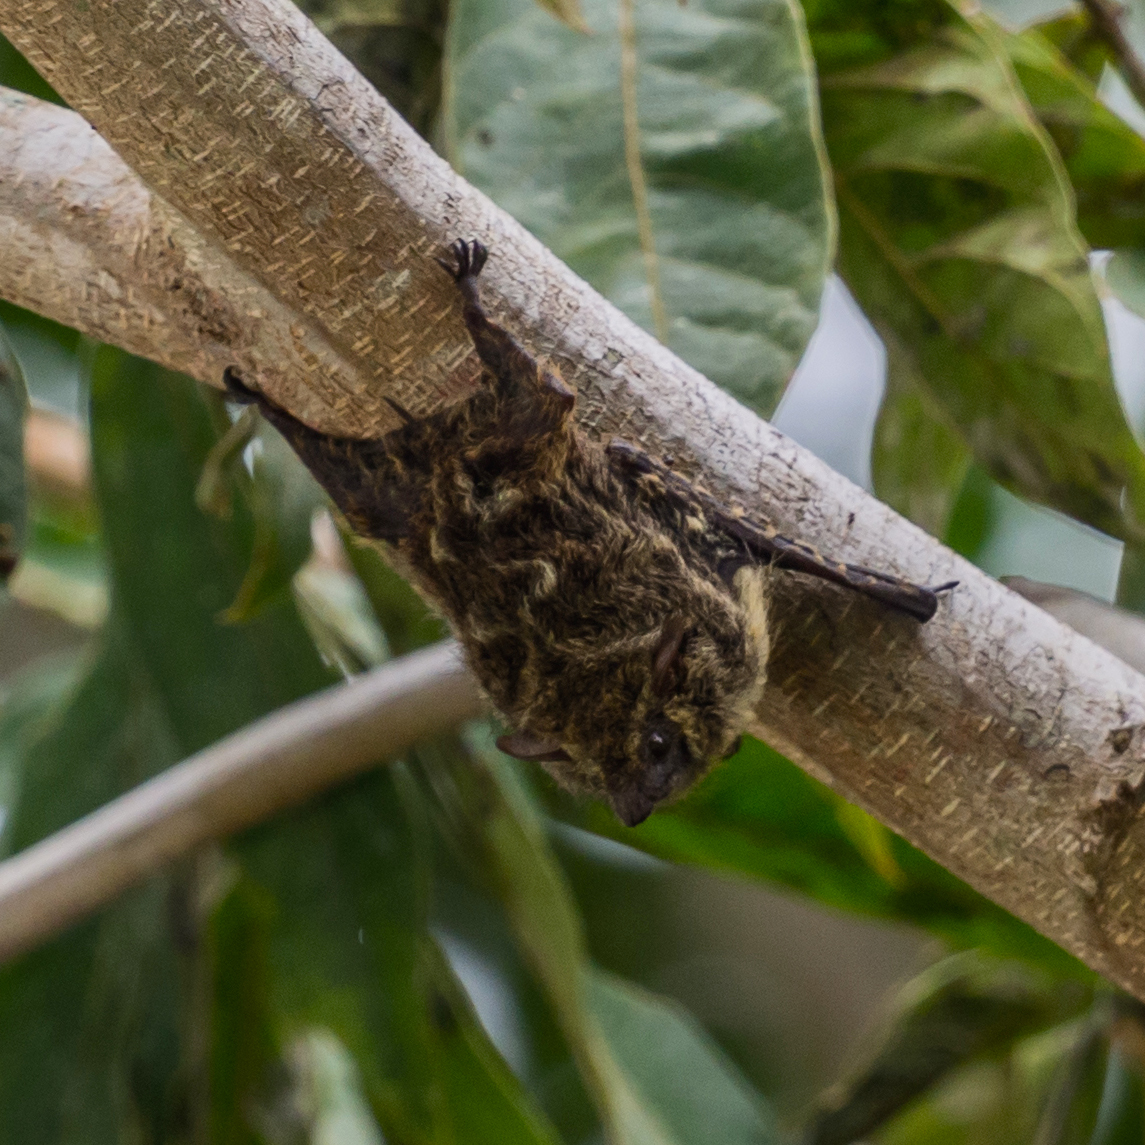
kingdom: Animalia
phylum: Chordata
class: Mammalia
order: Chiroptera
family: Emballonuridae
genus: Rhynchonycteris
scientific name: Rhynchonycteris naso
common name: Proboscis bat
